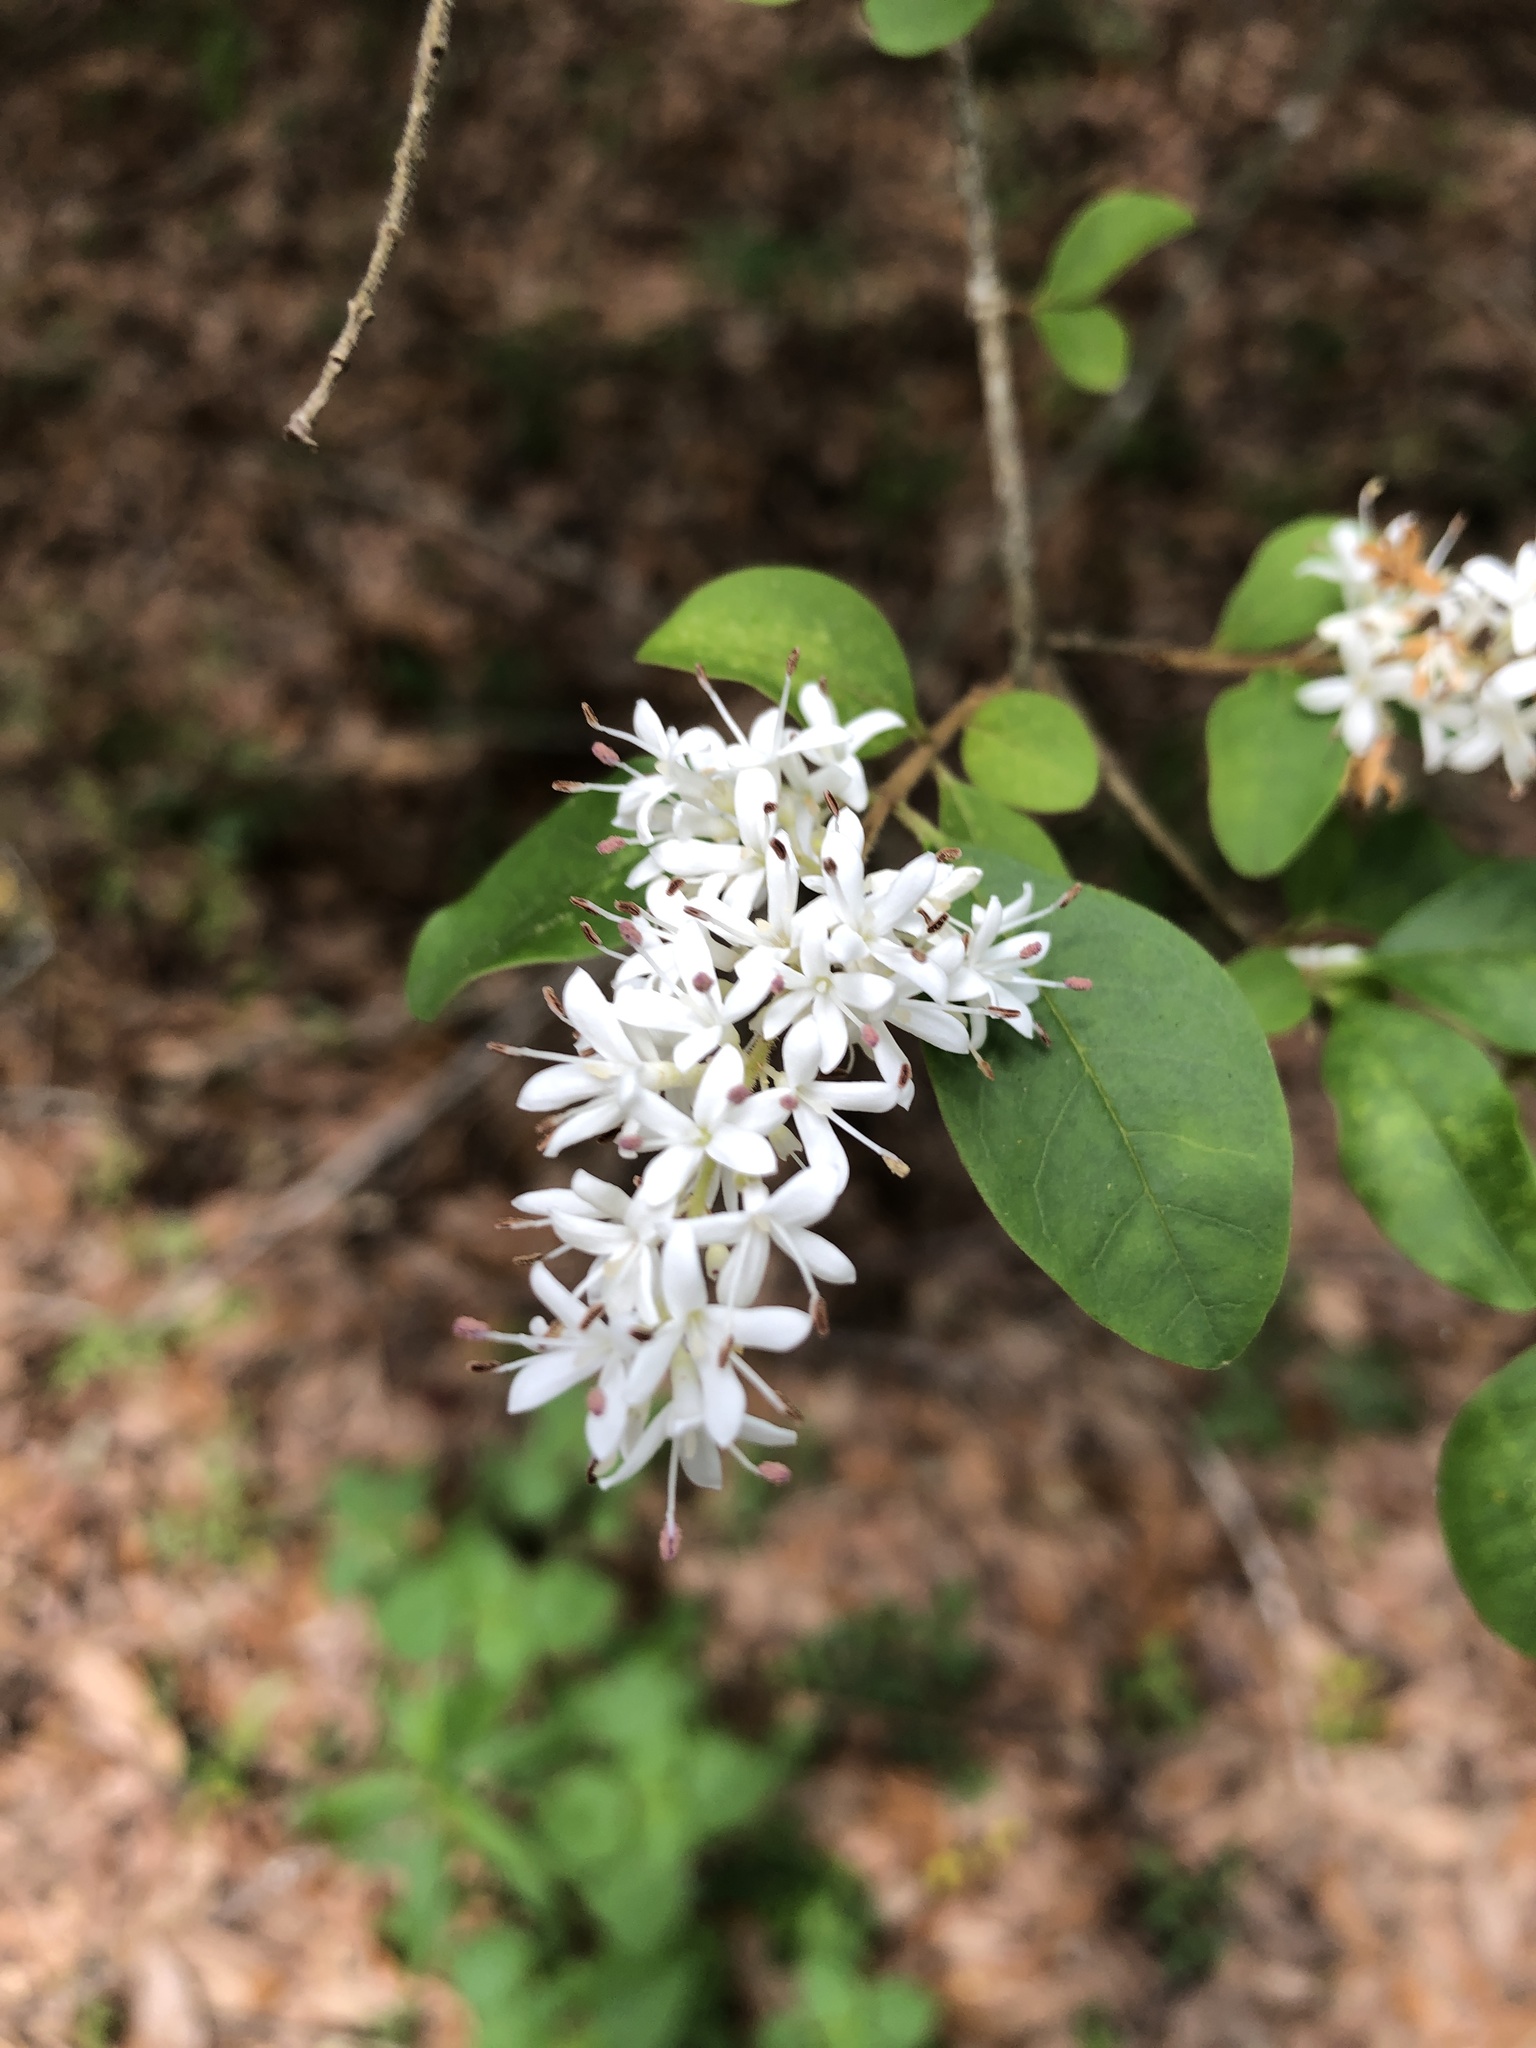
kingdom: Plantae
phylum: Tracheophyta
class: Magnoliopsida
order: Lamiales
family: Oleaceae
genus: Ligustrum
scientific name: Ligustrum sinense
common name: Chinese privet
